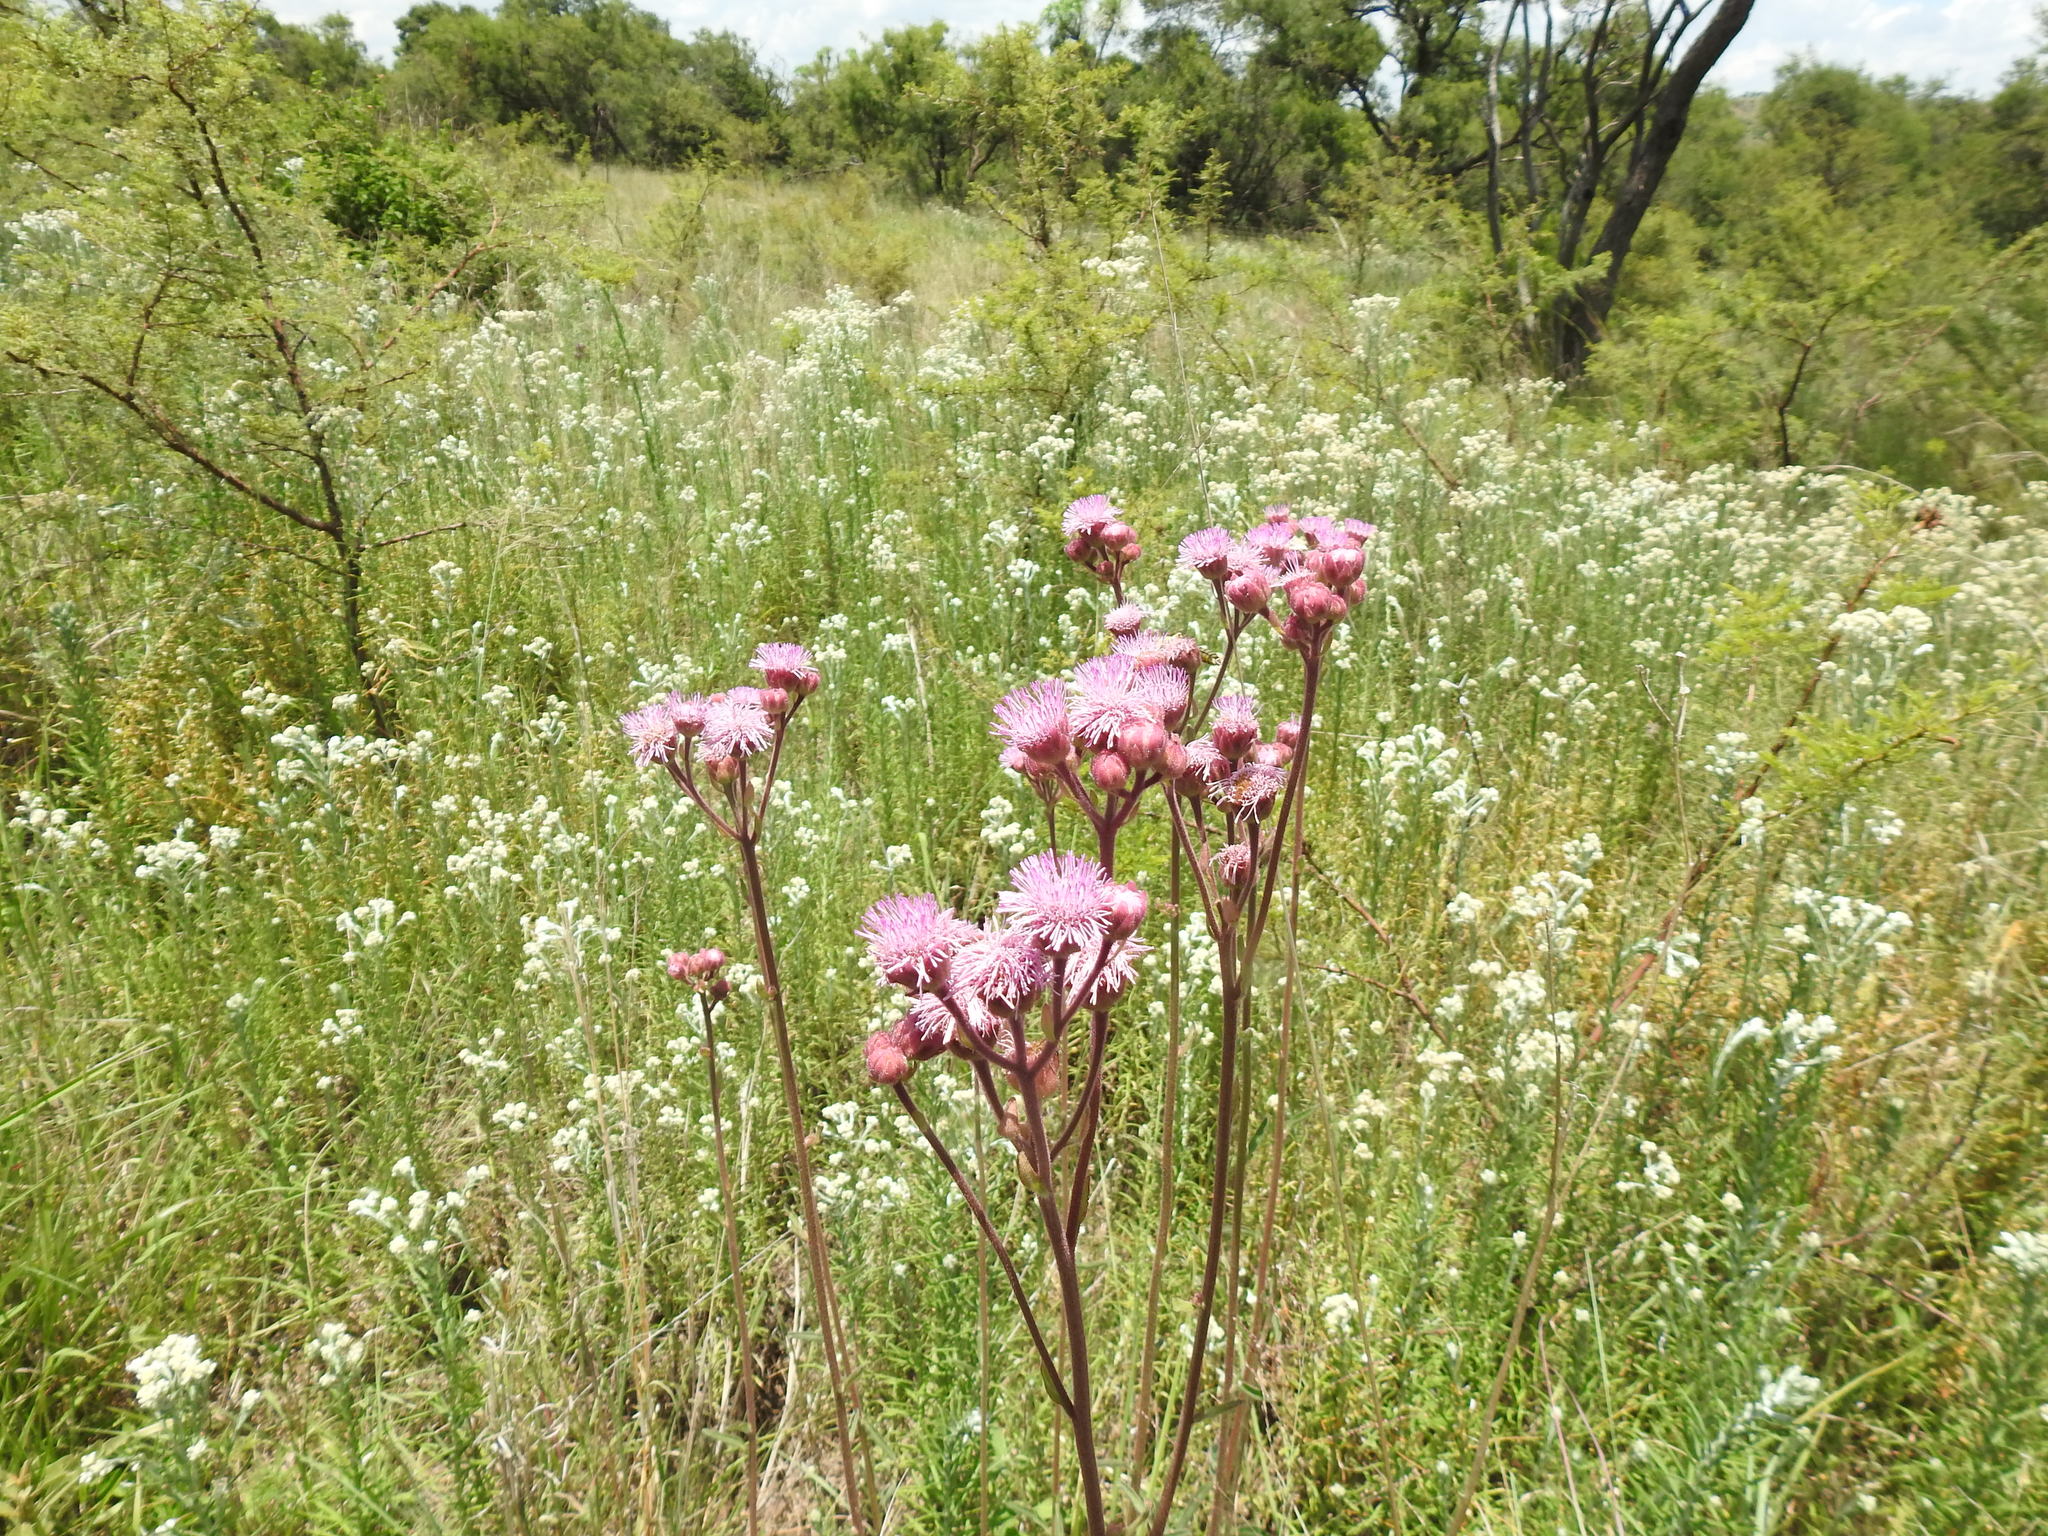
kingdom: Plantae
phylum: Tracheophyta
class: Magnoliopsida
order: Asterales
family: Asteraceae
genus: Campuloclinium
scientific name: Campuloclinium macrocephalum
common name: Pompomweed
